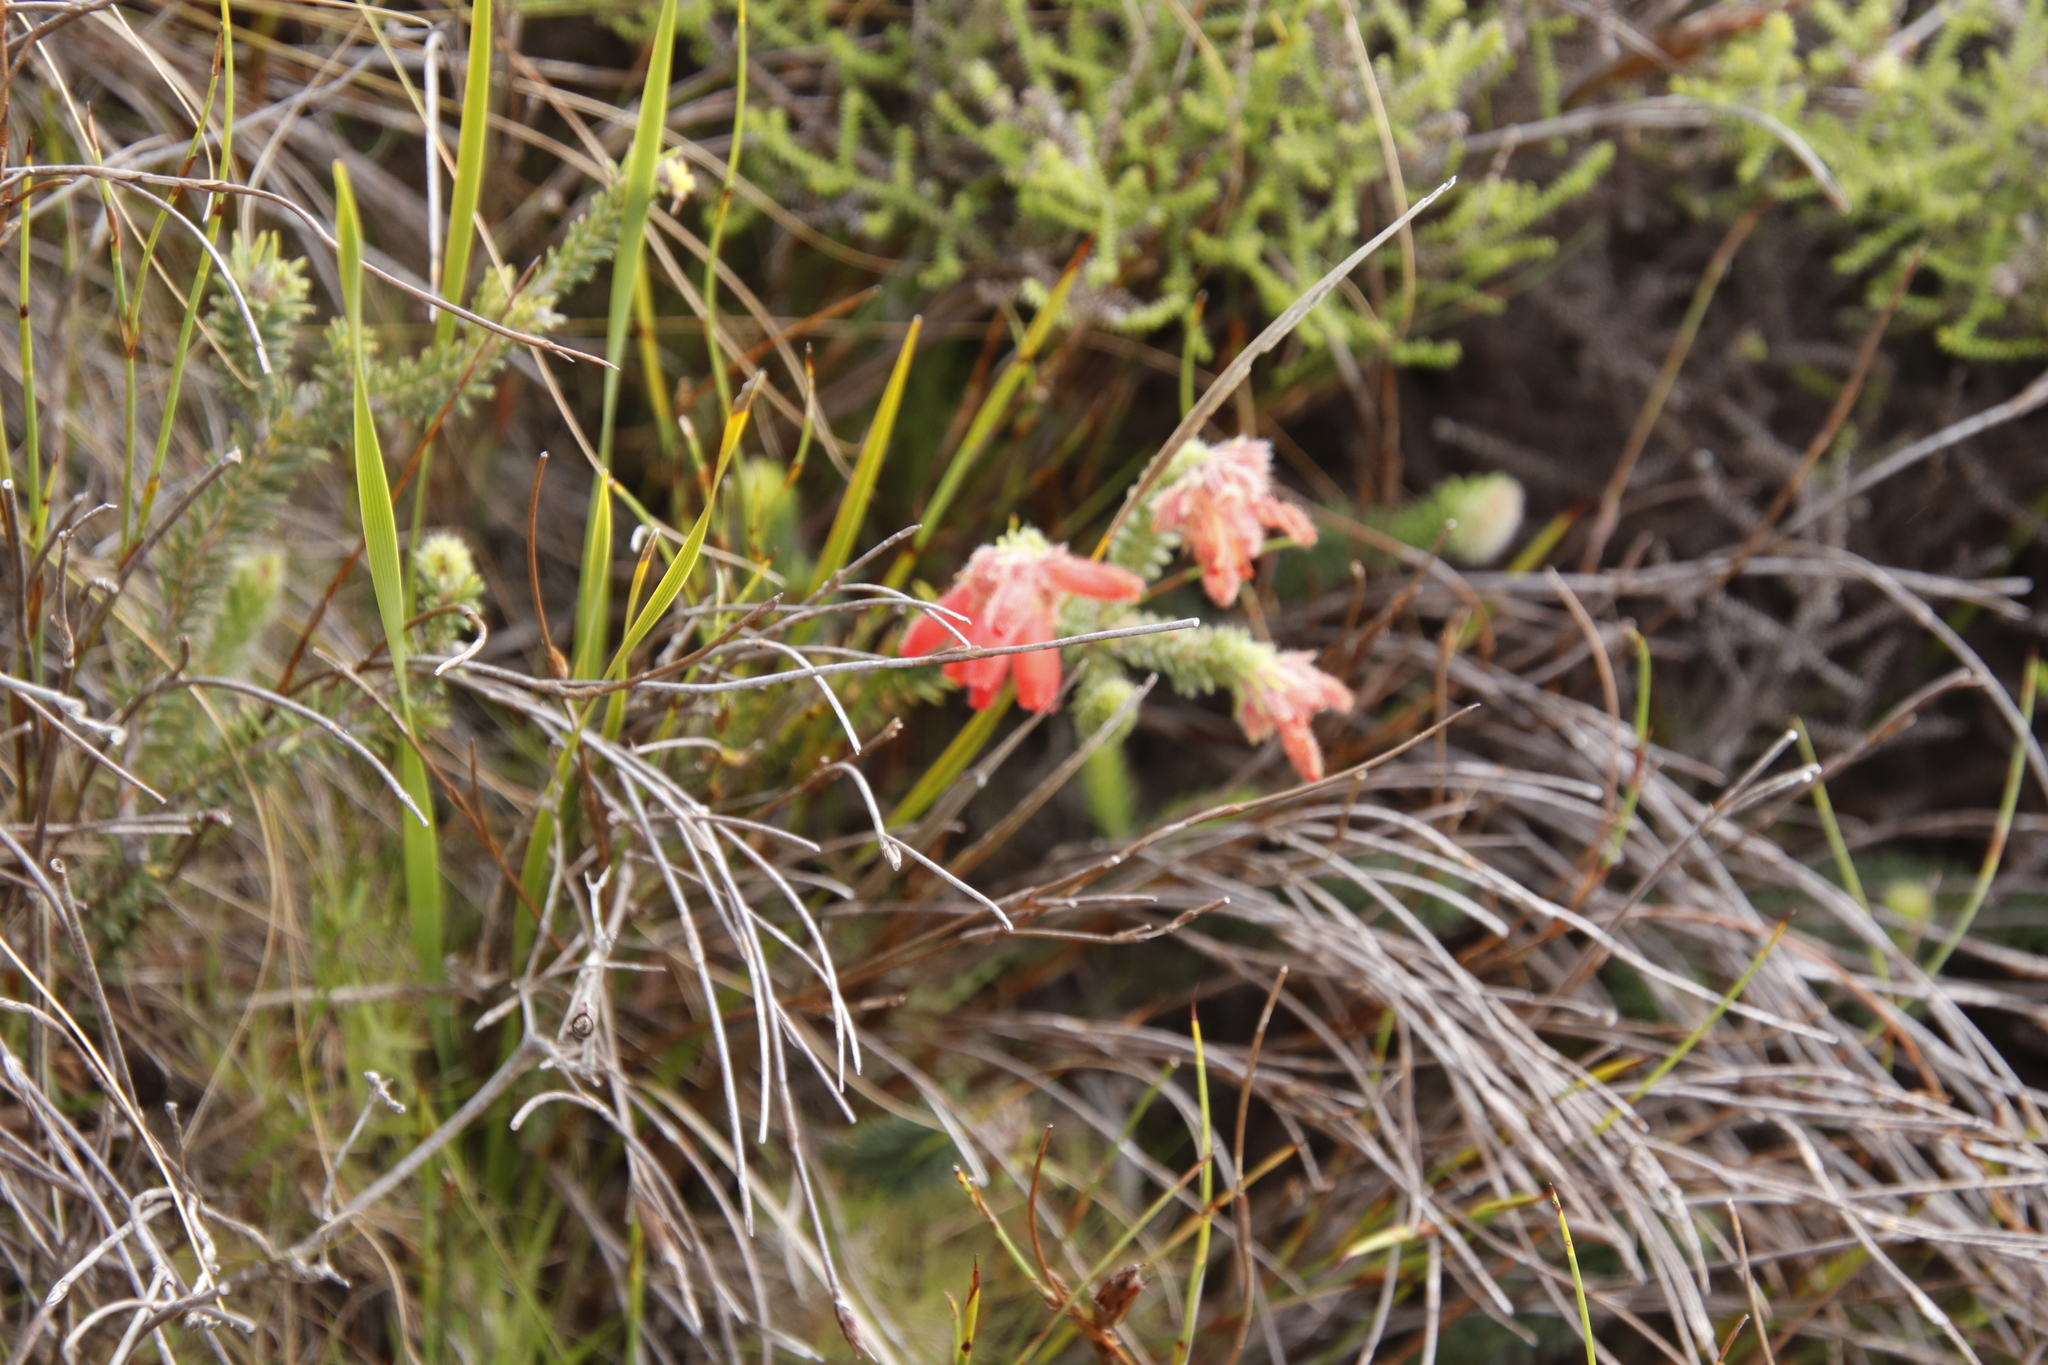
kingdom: Plantae
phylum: Tracheophyta
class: Magnoliopsida
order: Ericales
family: Ericaceae
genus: Erica
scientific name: Erica cerinthoides
